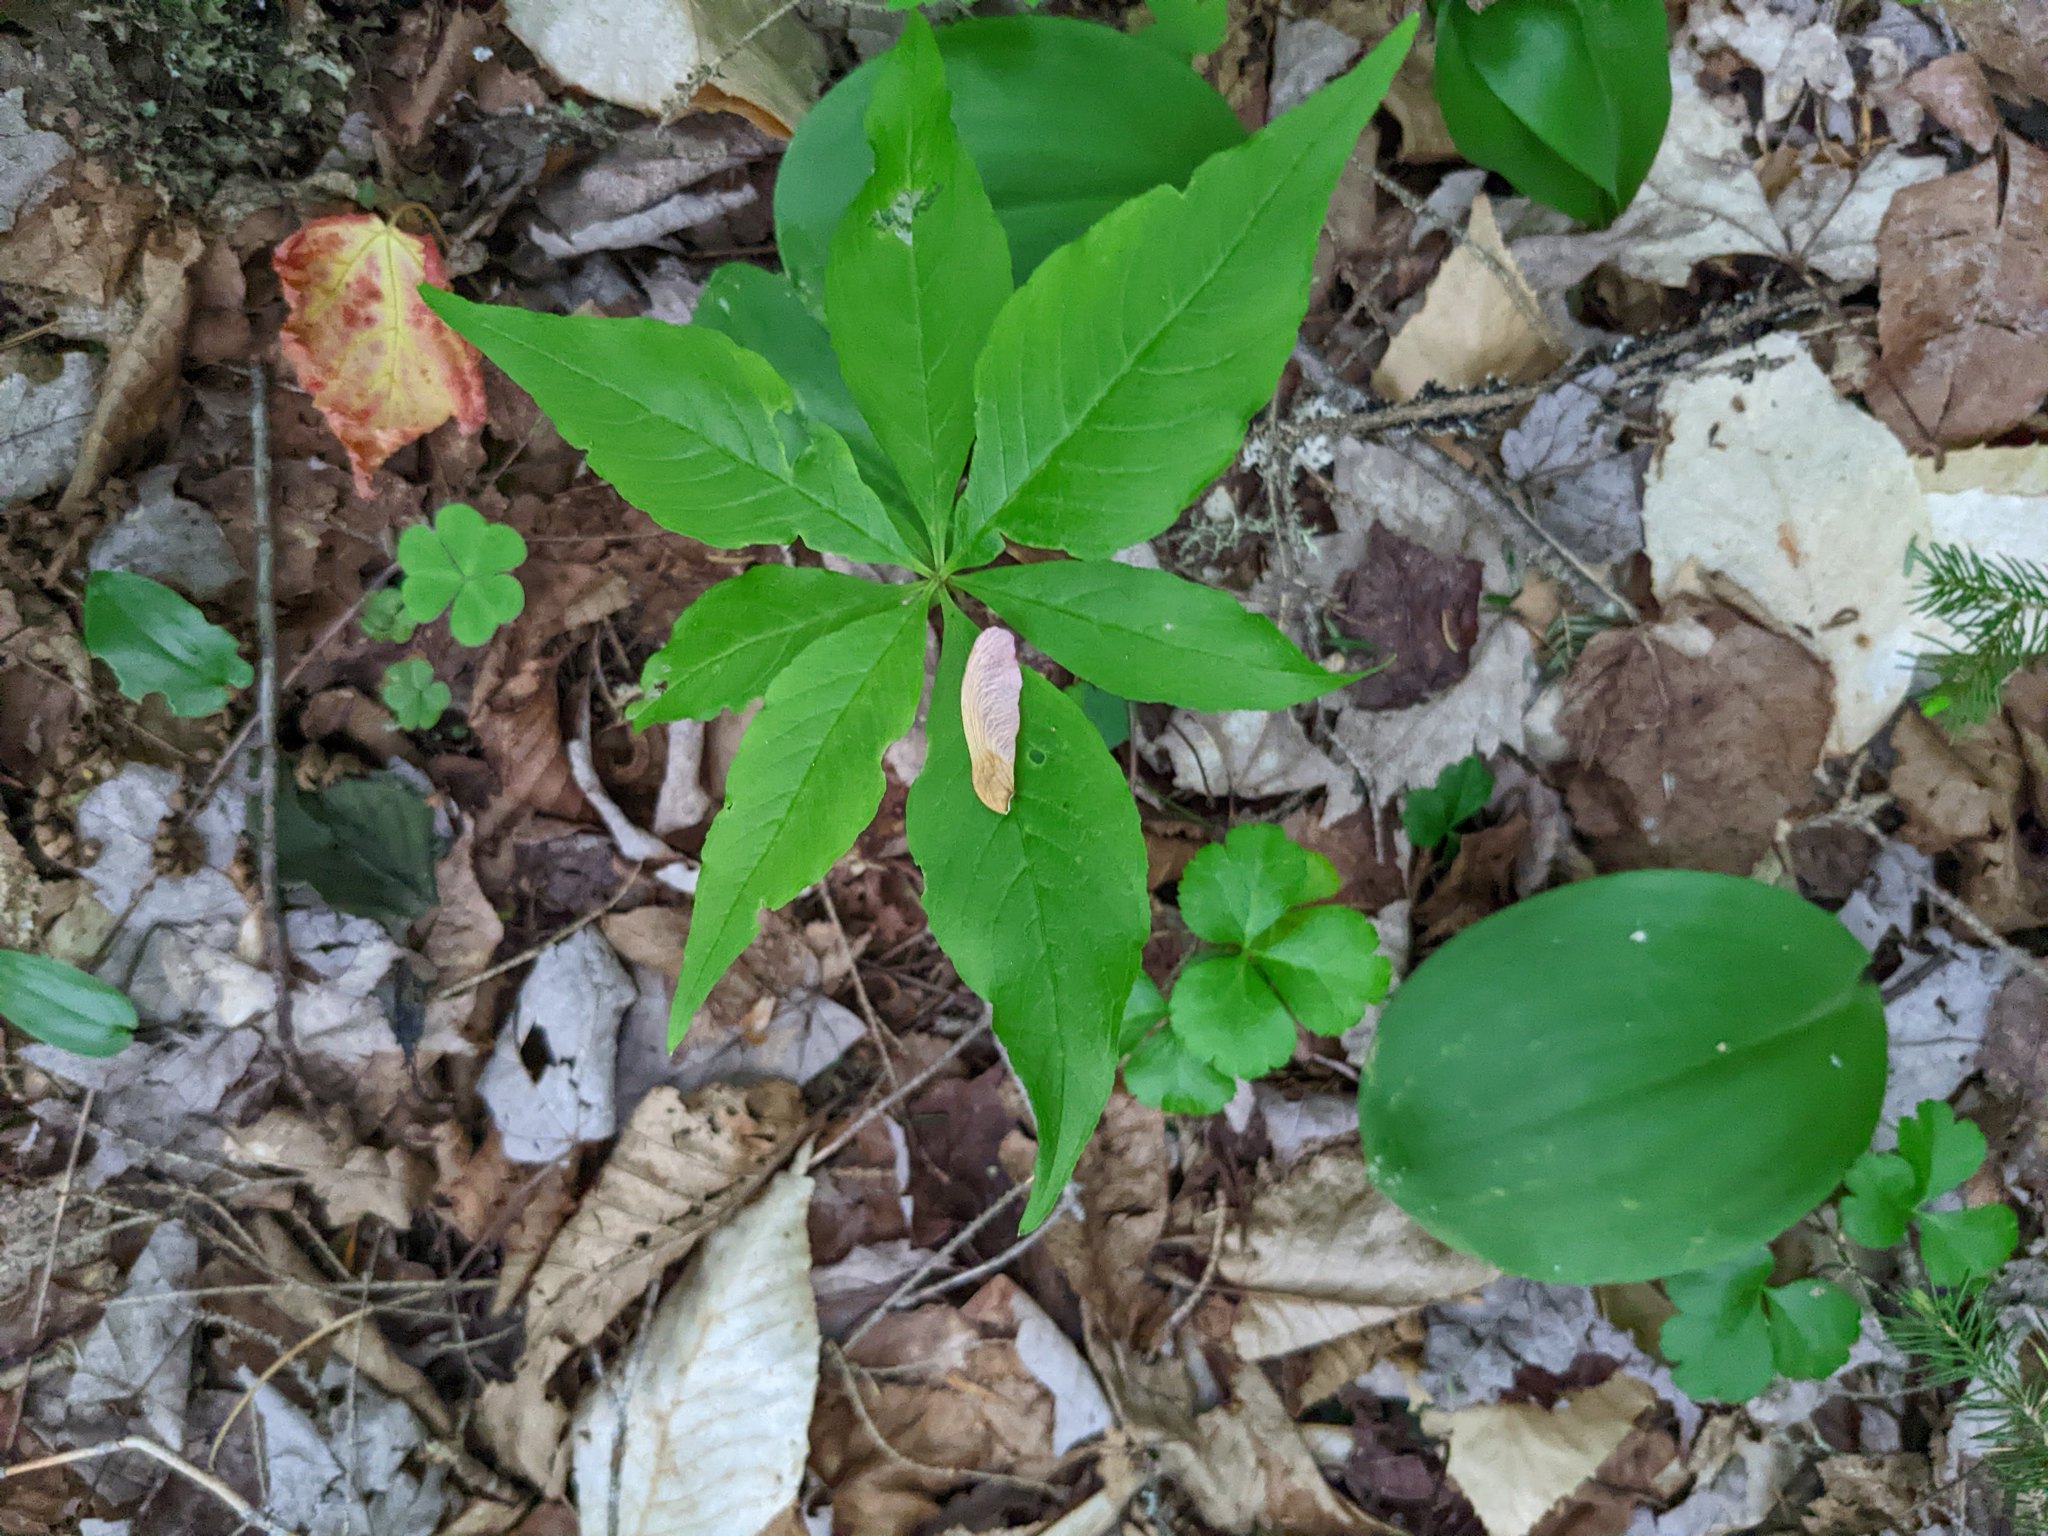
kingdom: Plantae
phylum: Tracheophyta
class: Magnoliopsida
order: Ericales
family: Primulaceae
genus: Lysimachia
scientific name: Lysimachia borealis
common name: American starflower
